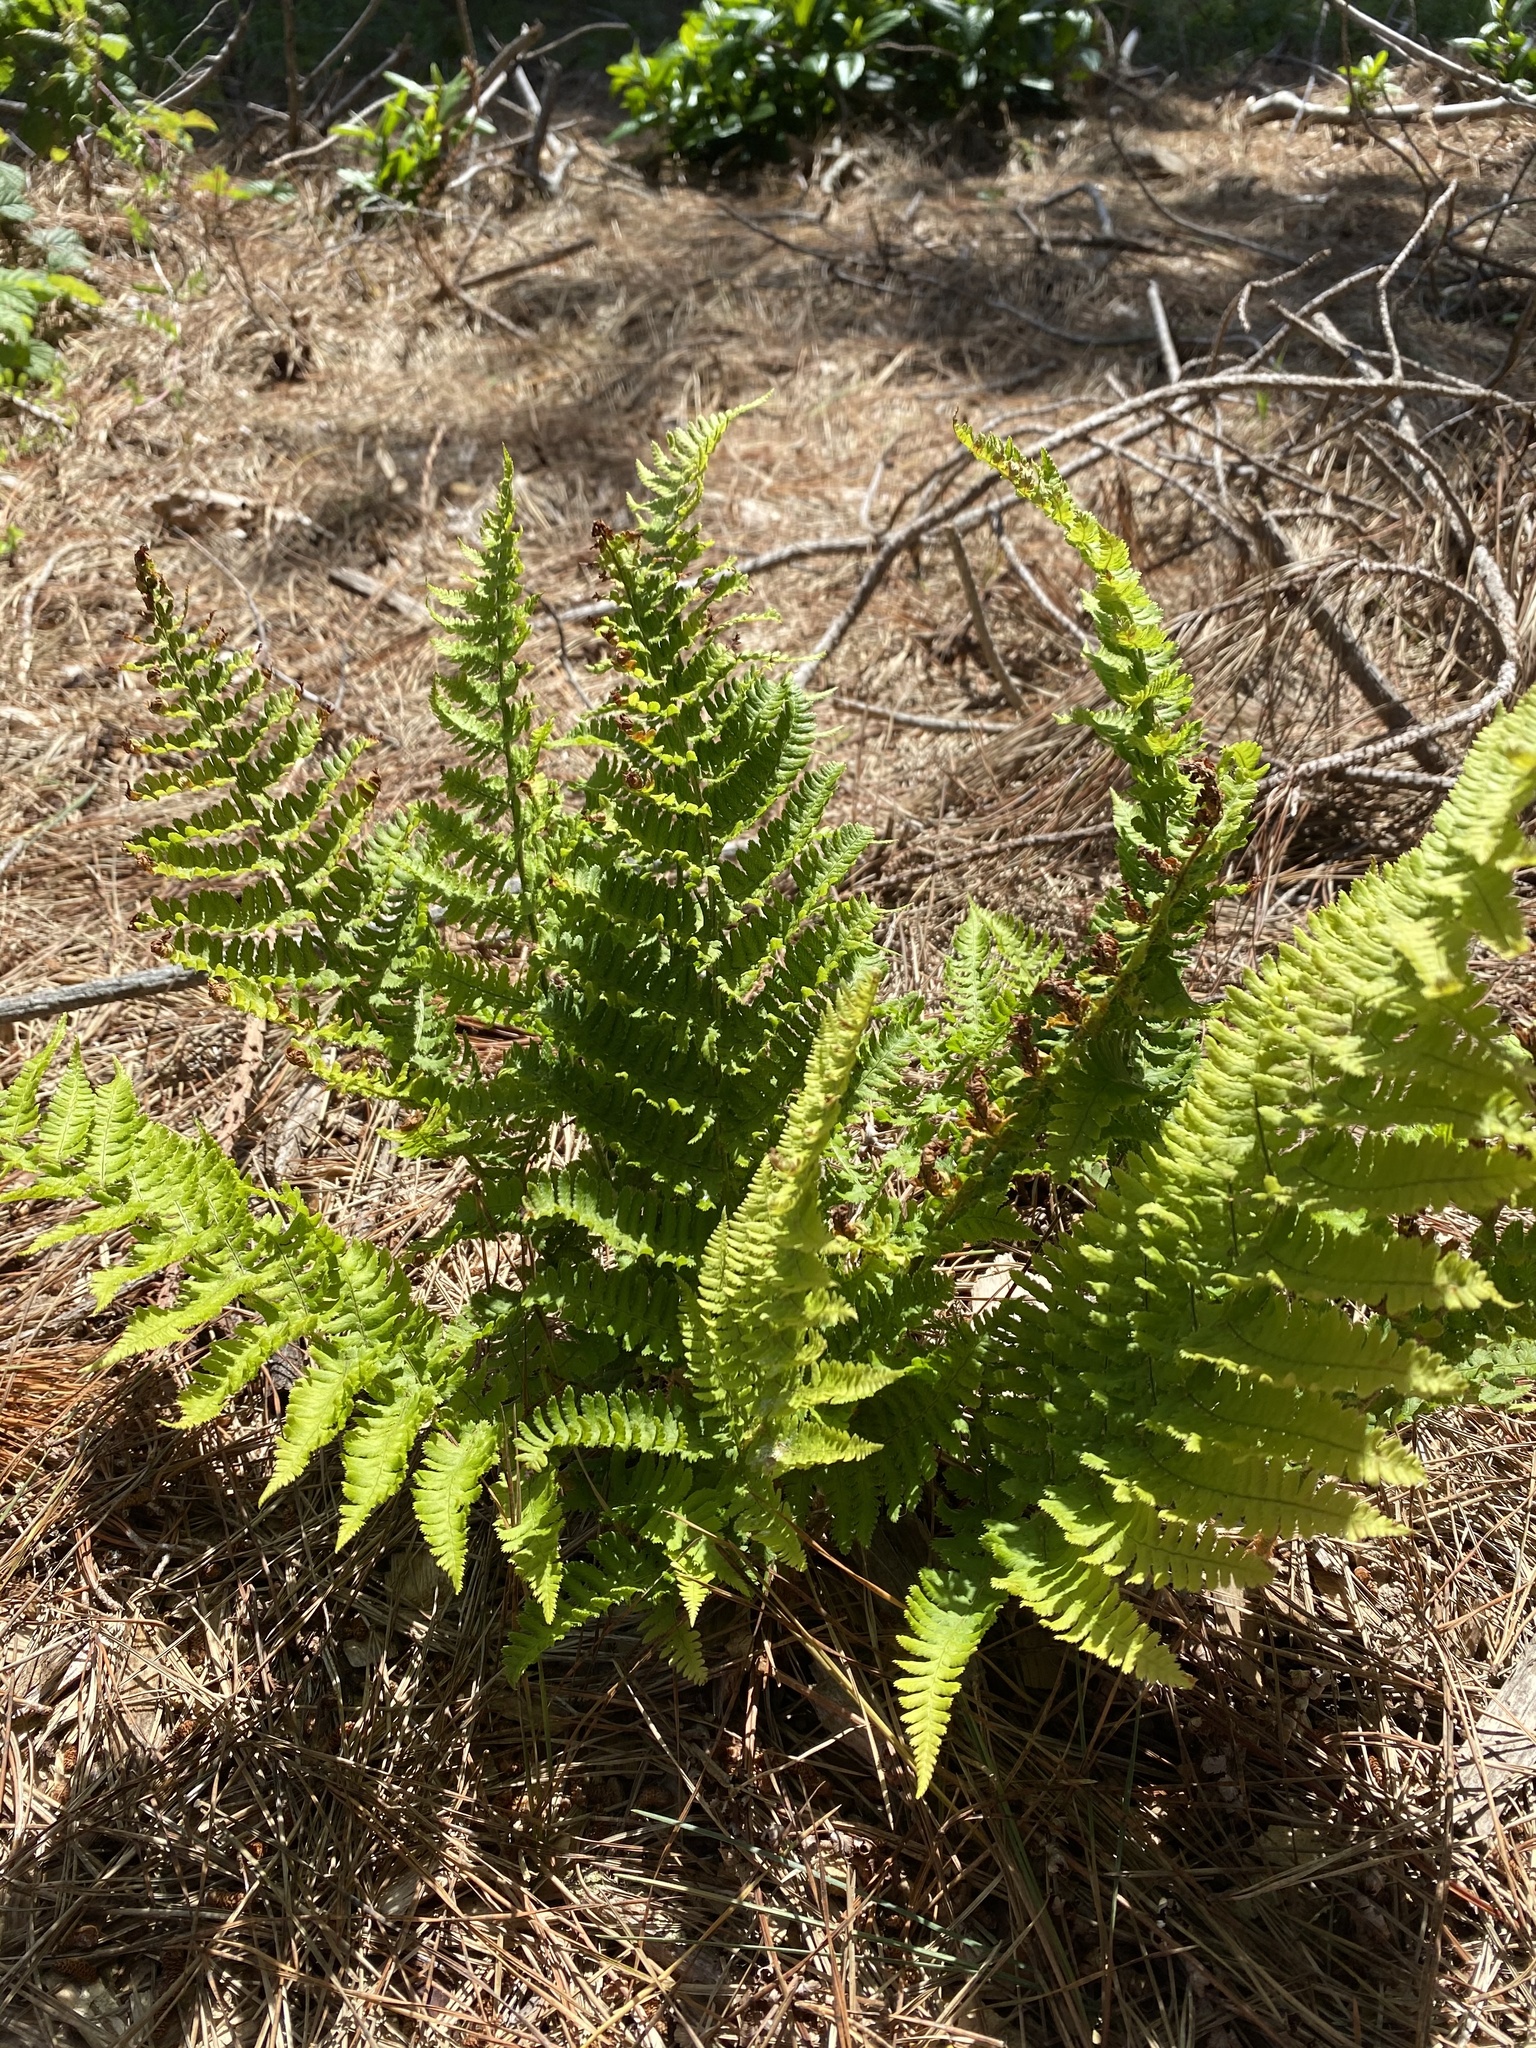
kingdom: Plantae
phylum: Tracheophyta
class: Polypodiopsida
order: Polypodiales
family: Dryopteridaceae
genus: Dryopteris
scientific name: Dryopteris arguta
